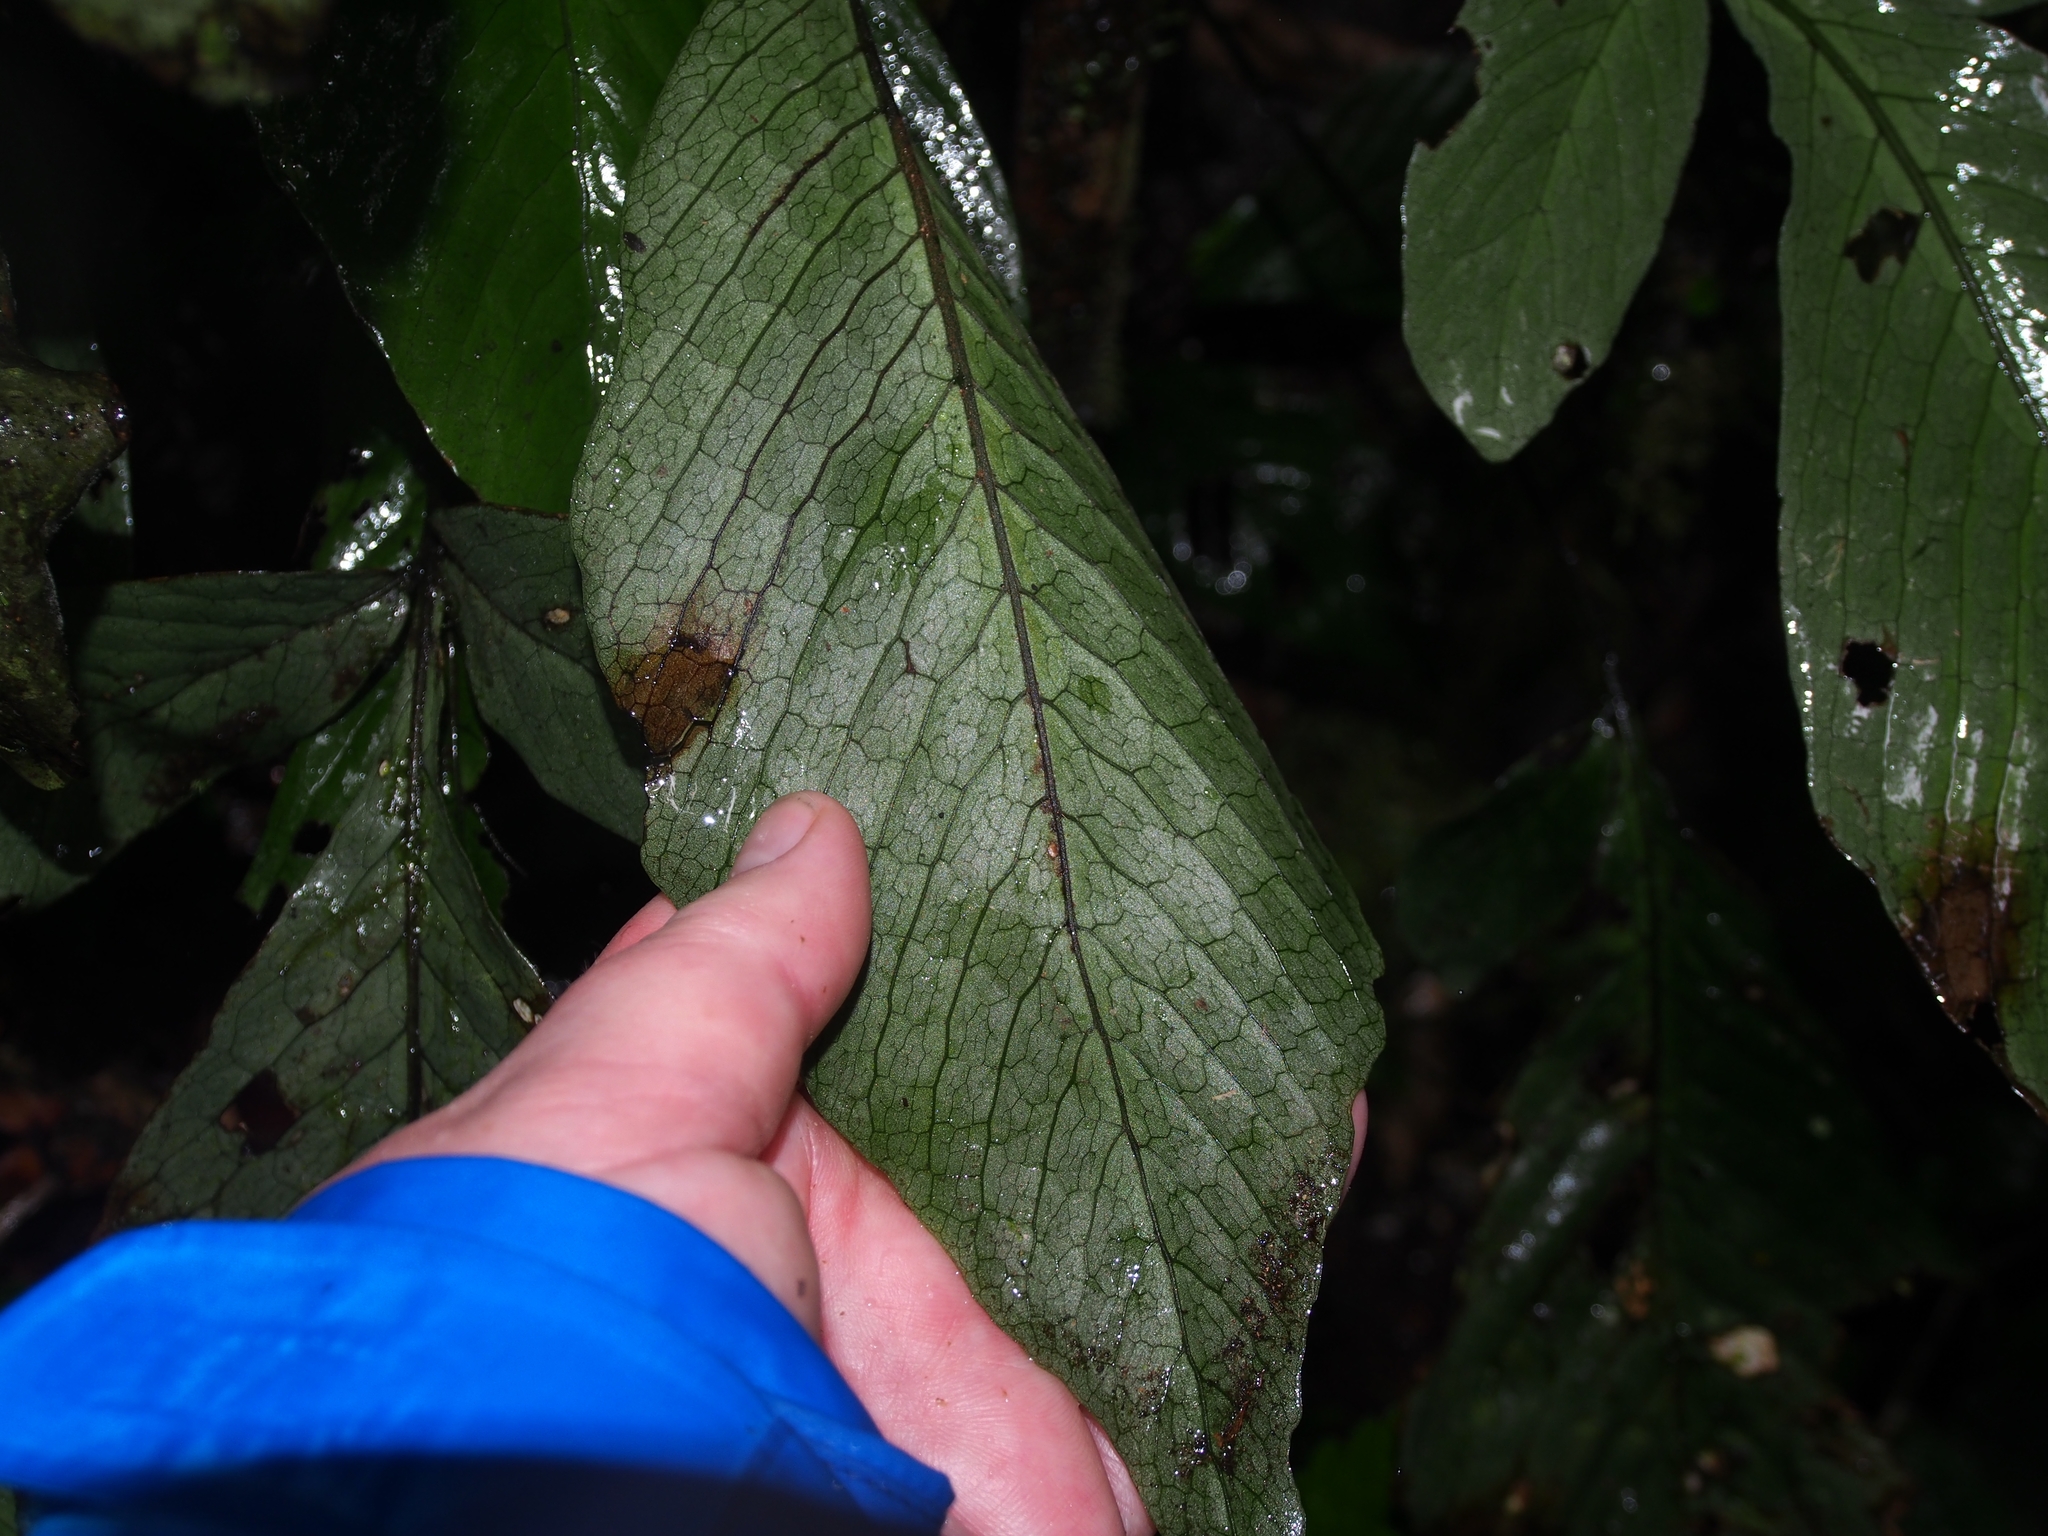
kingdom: Plantae
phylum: Tracheophyta
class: Polypodiopsida
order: Polypodiales
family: Dryopteridaceae
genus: Mickelia
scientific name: Mickelia oligarchica
